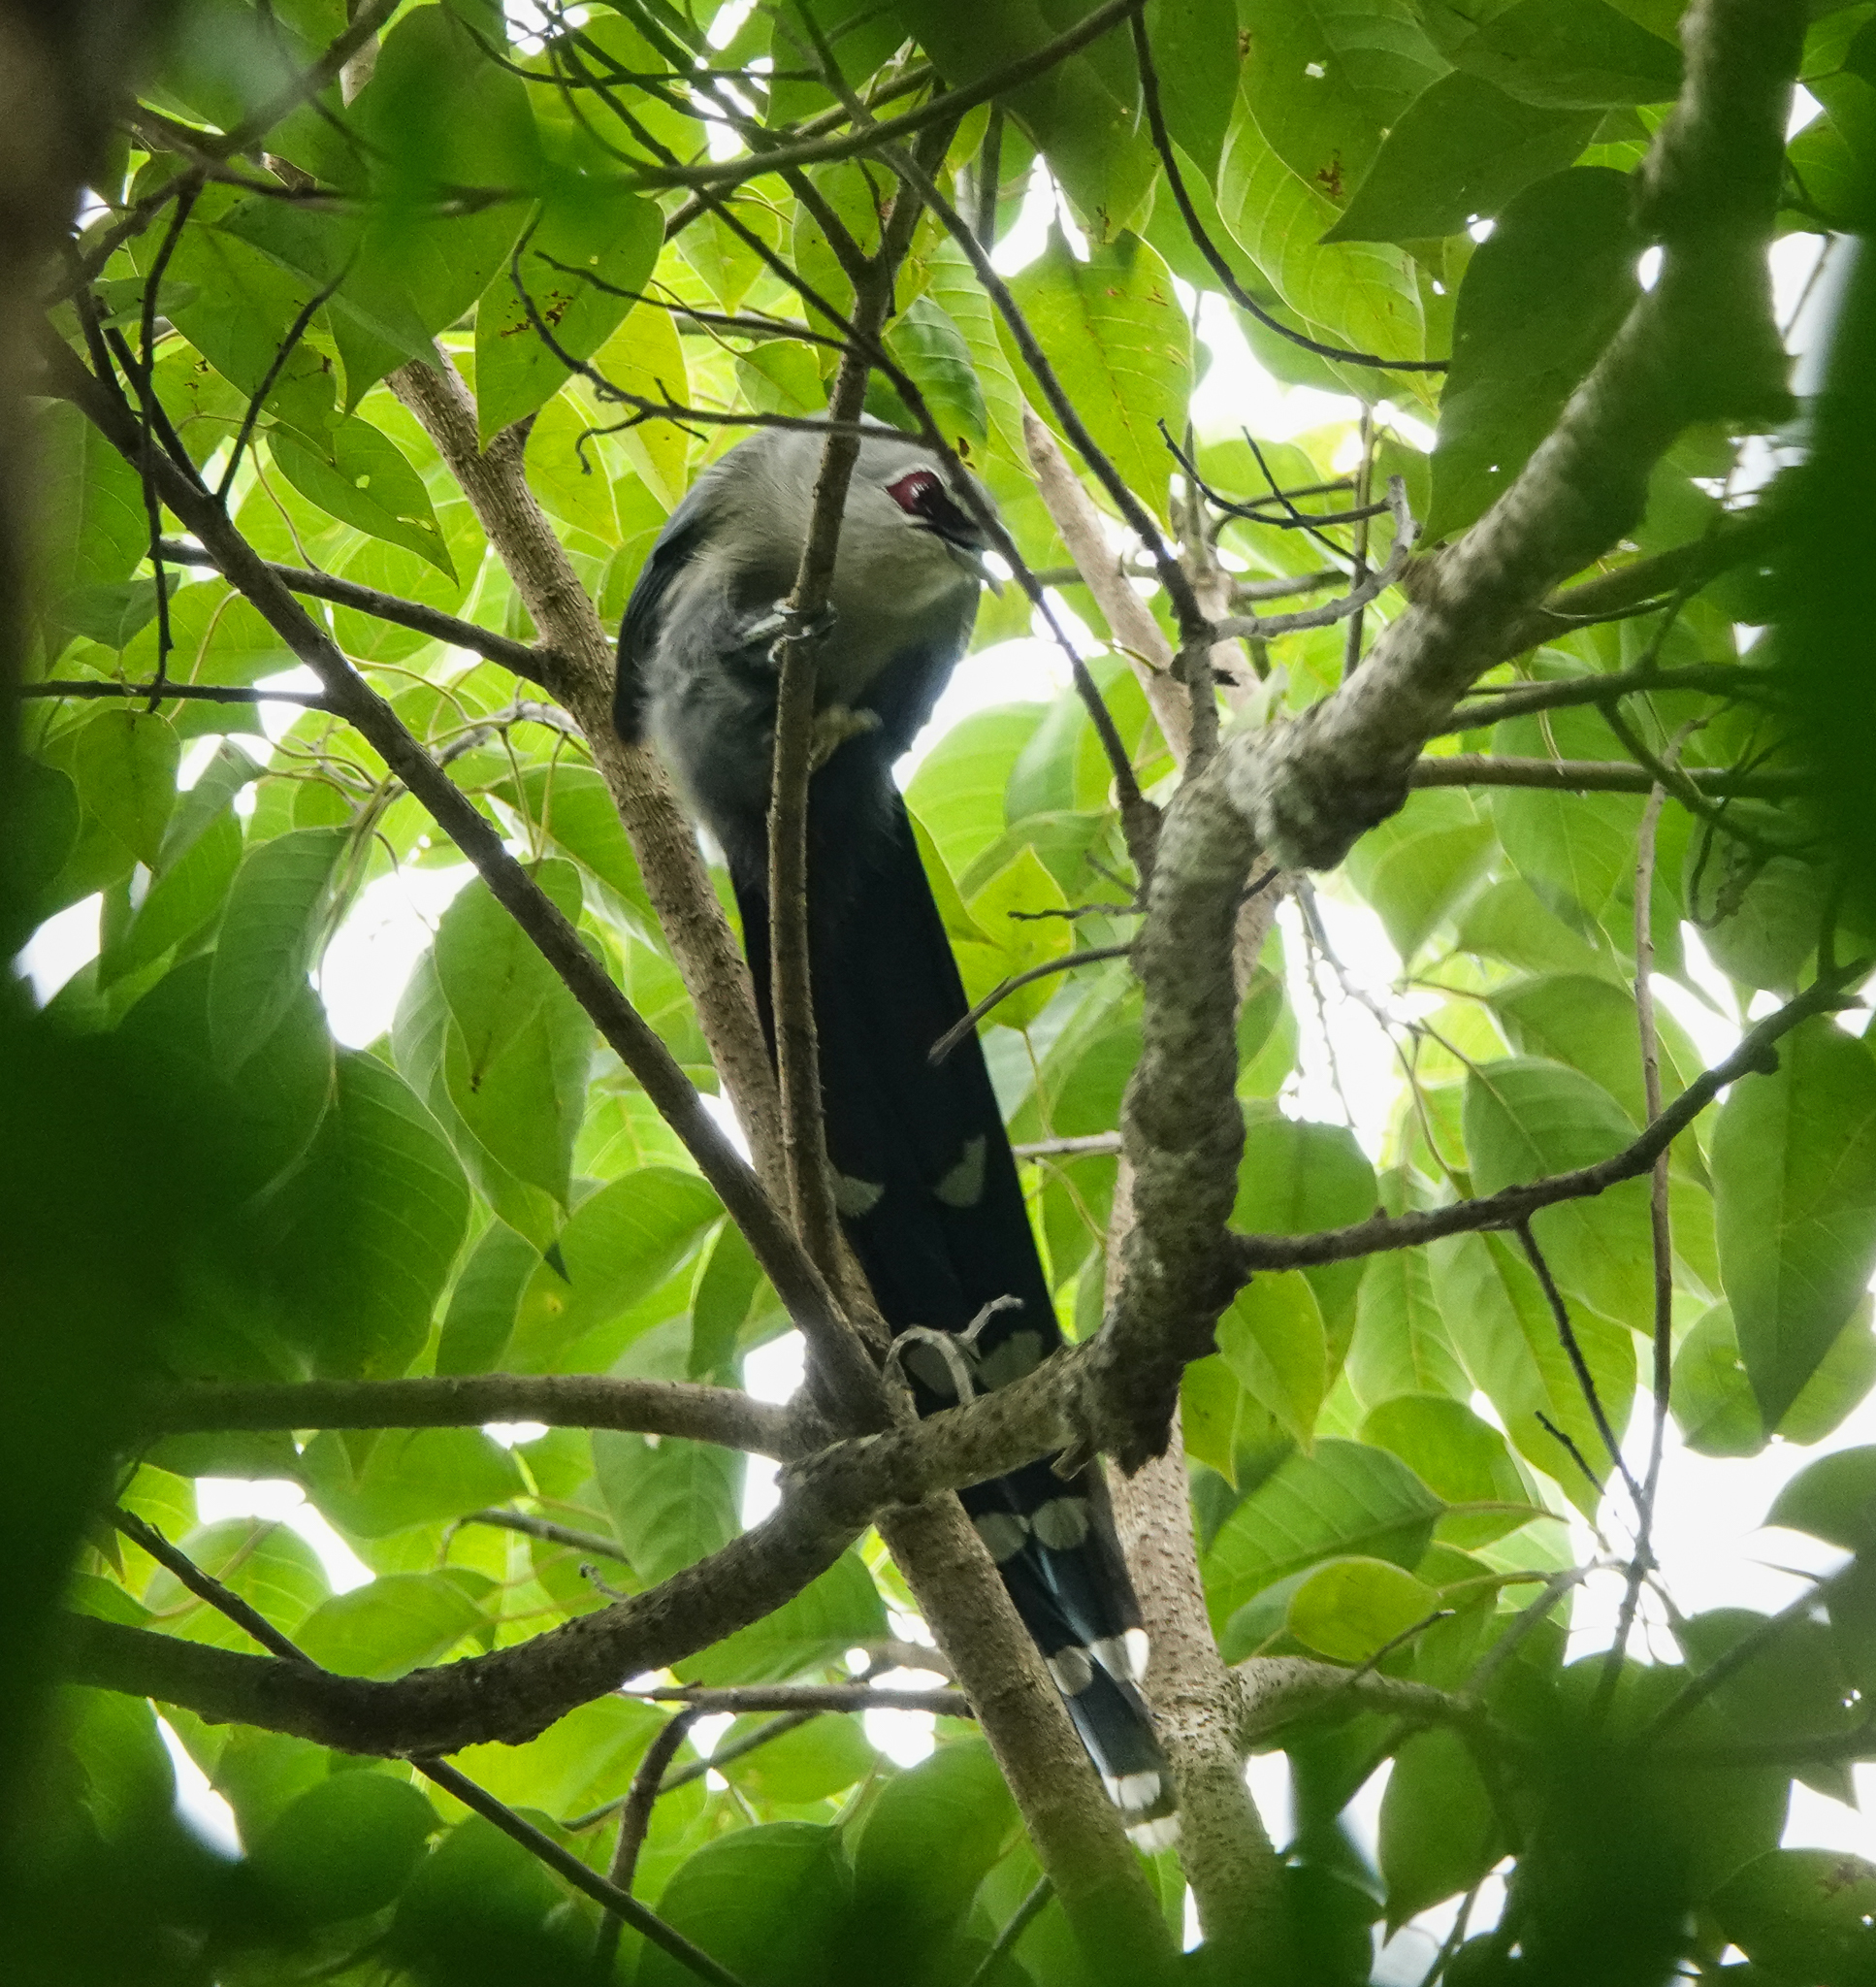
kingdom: Animalia
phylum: Chordata
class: Aves
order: Cuculiformes
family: Cuculidae
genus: Rhopodytes
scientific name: Rhopodytes tristis
